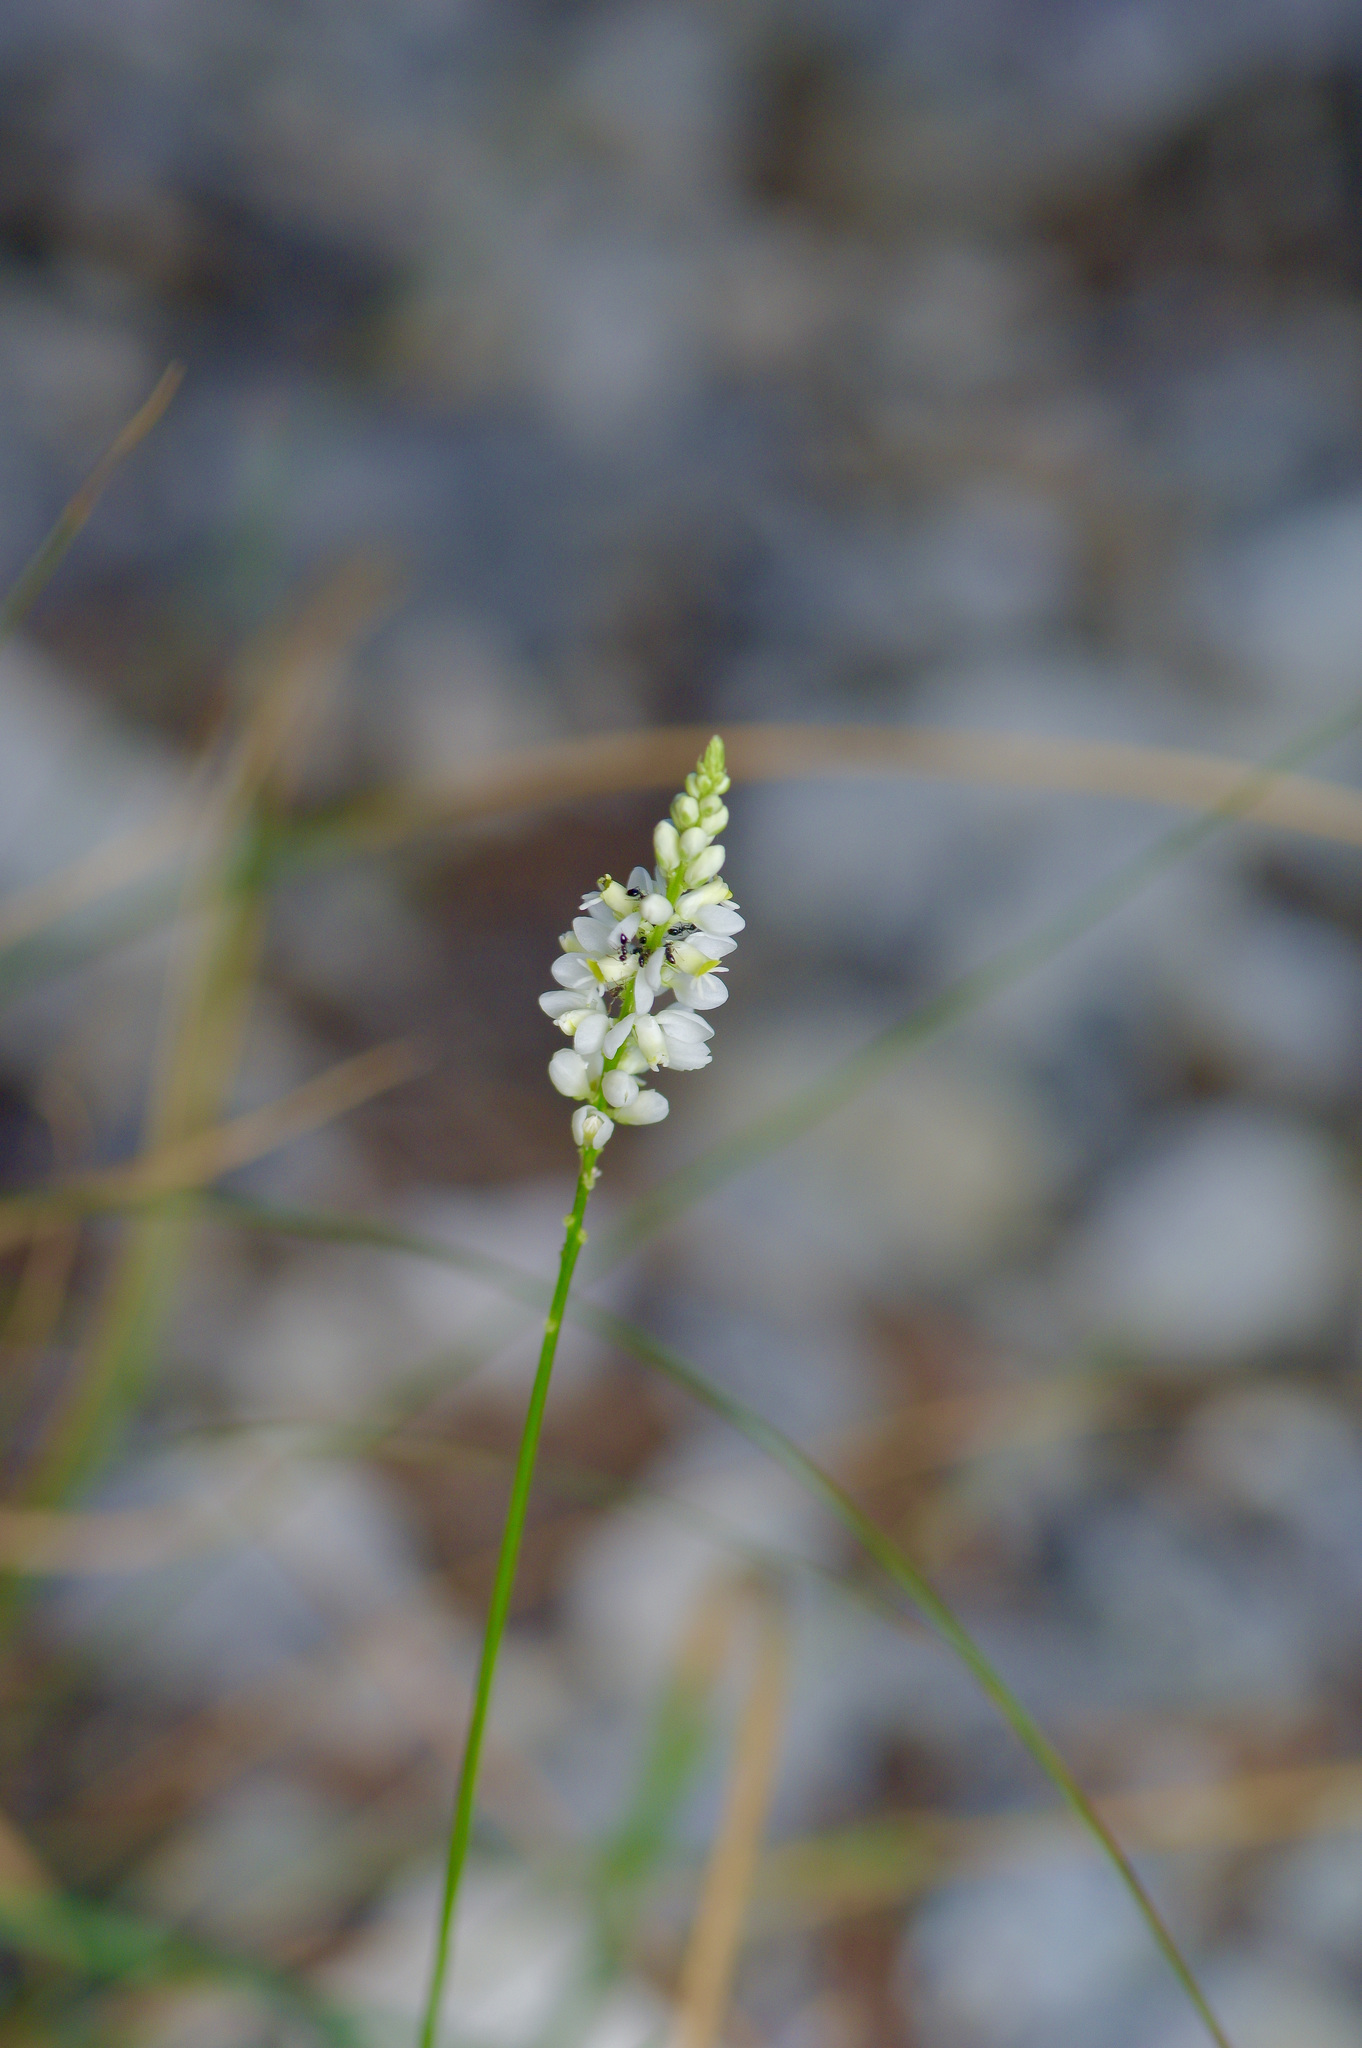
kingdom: Plantae
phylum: Tracheophyta
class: Magnoliopsida
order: Fabales
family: Polygalaceae
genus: Polygala
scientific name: Polygala alba
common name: White milkwort
